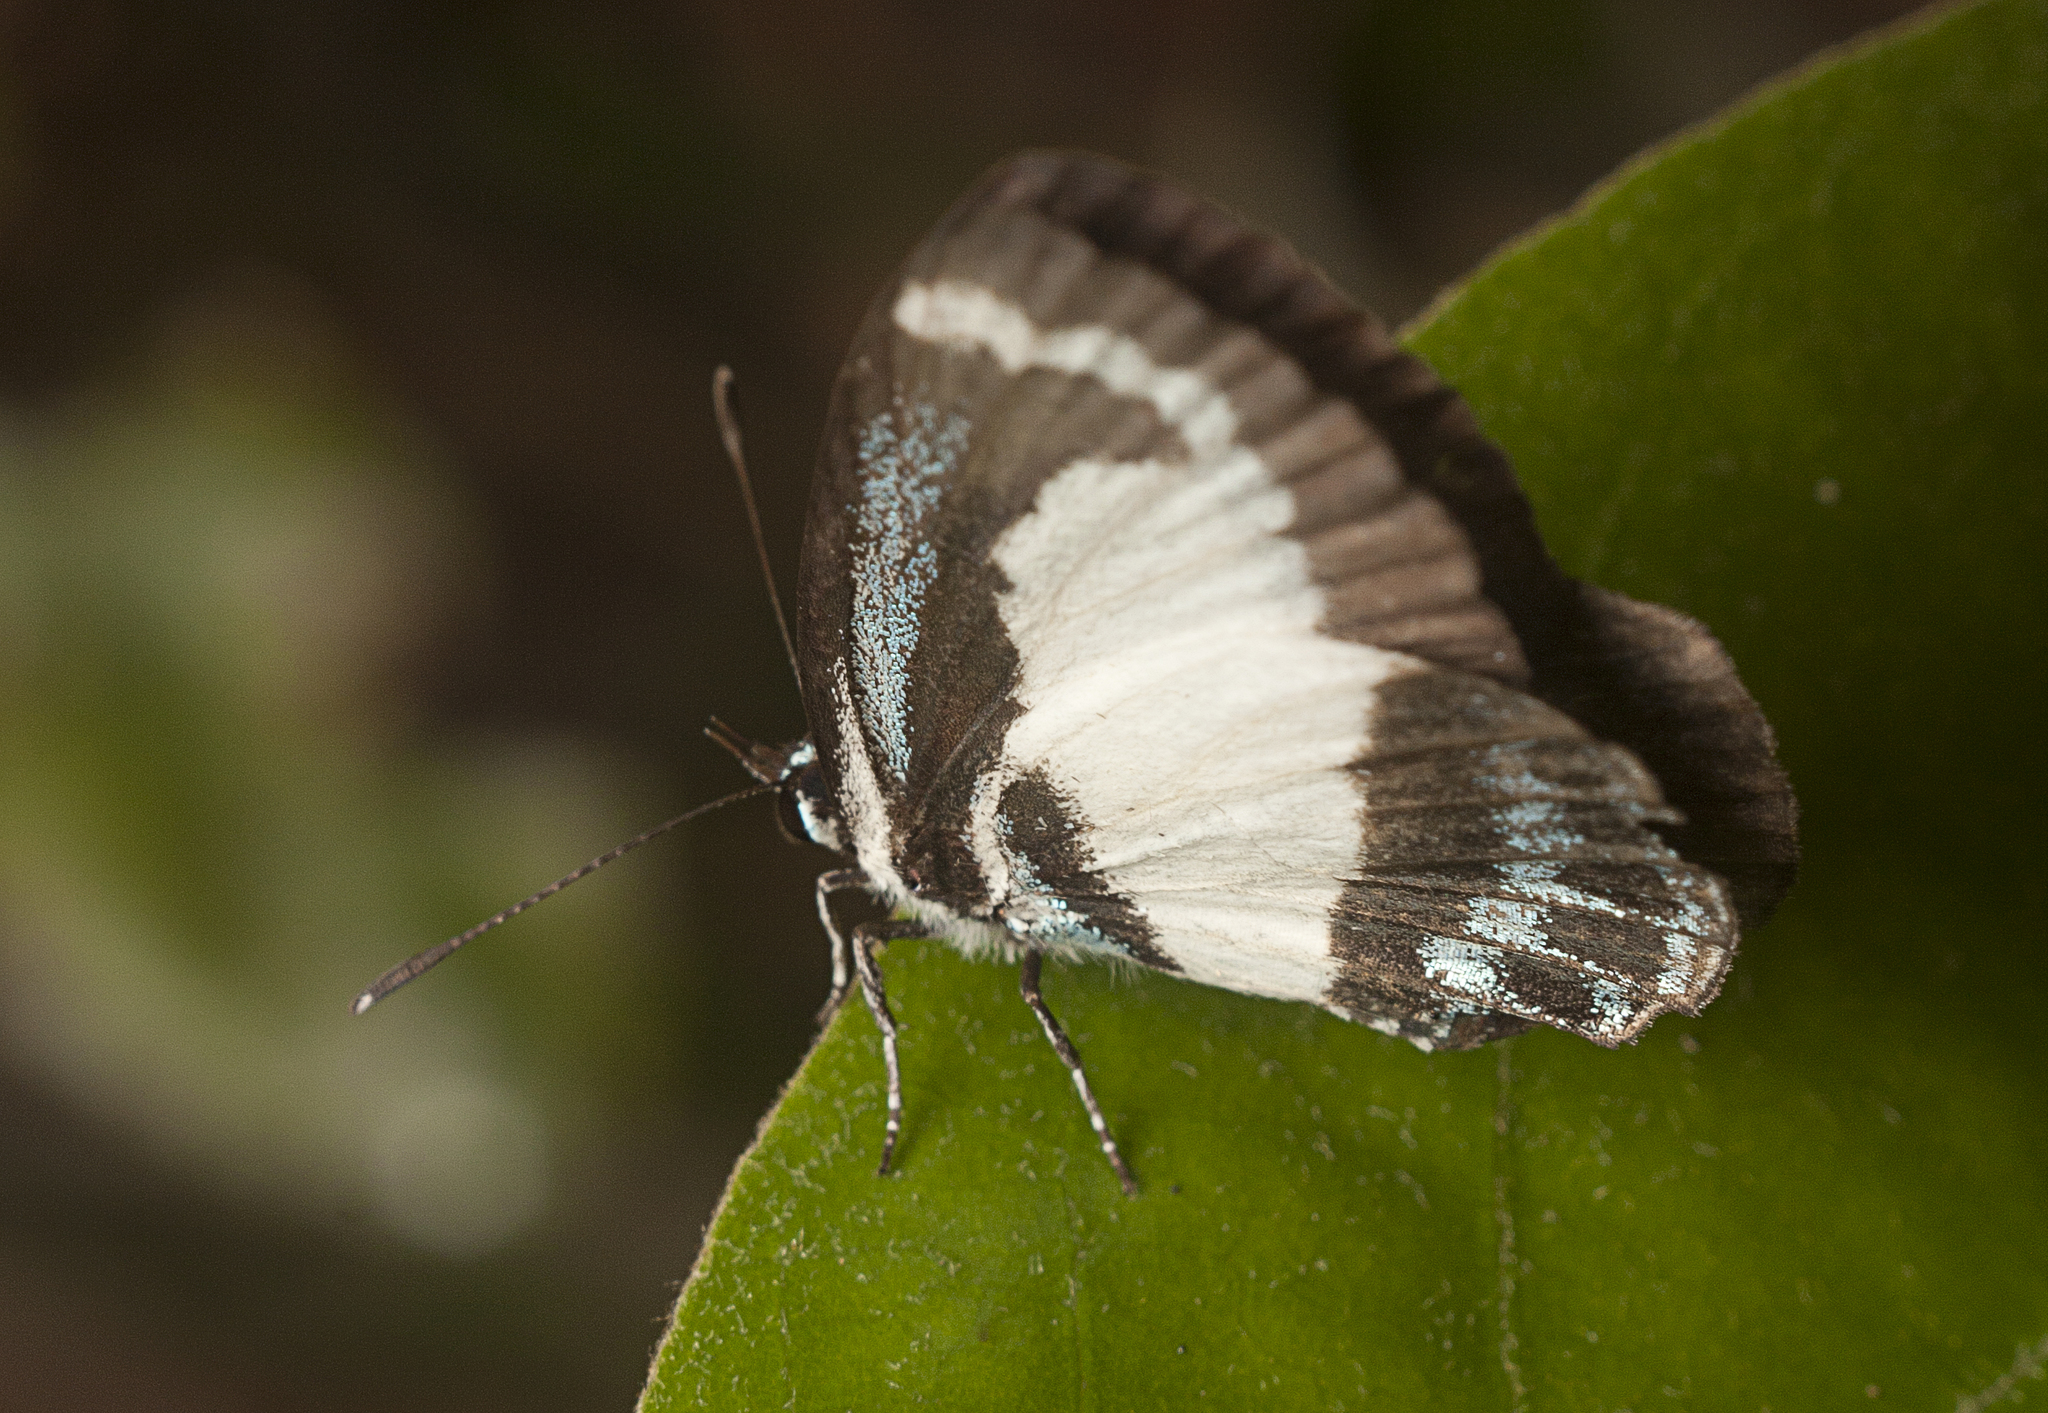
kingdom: Animalia
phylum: Arthropoda
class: Insecta
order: Lepidoptera
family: Lycaenidae
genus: Psychonotis
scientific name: Psychonotis caelius
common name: Small green banded blue
